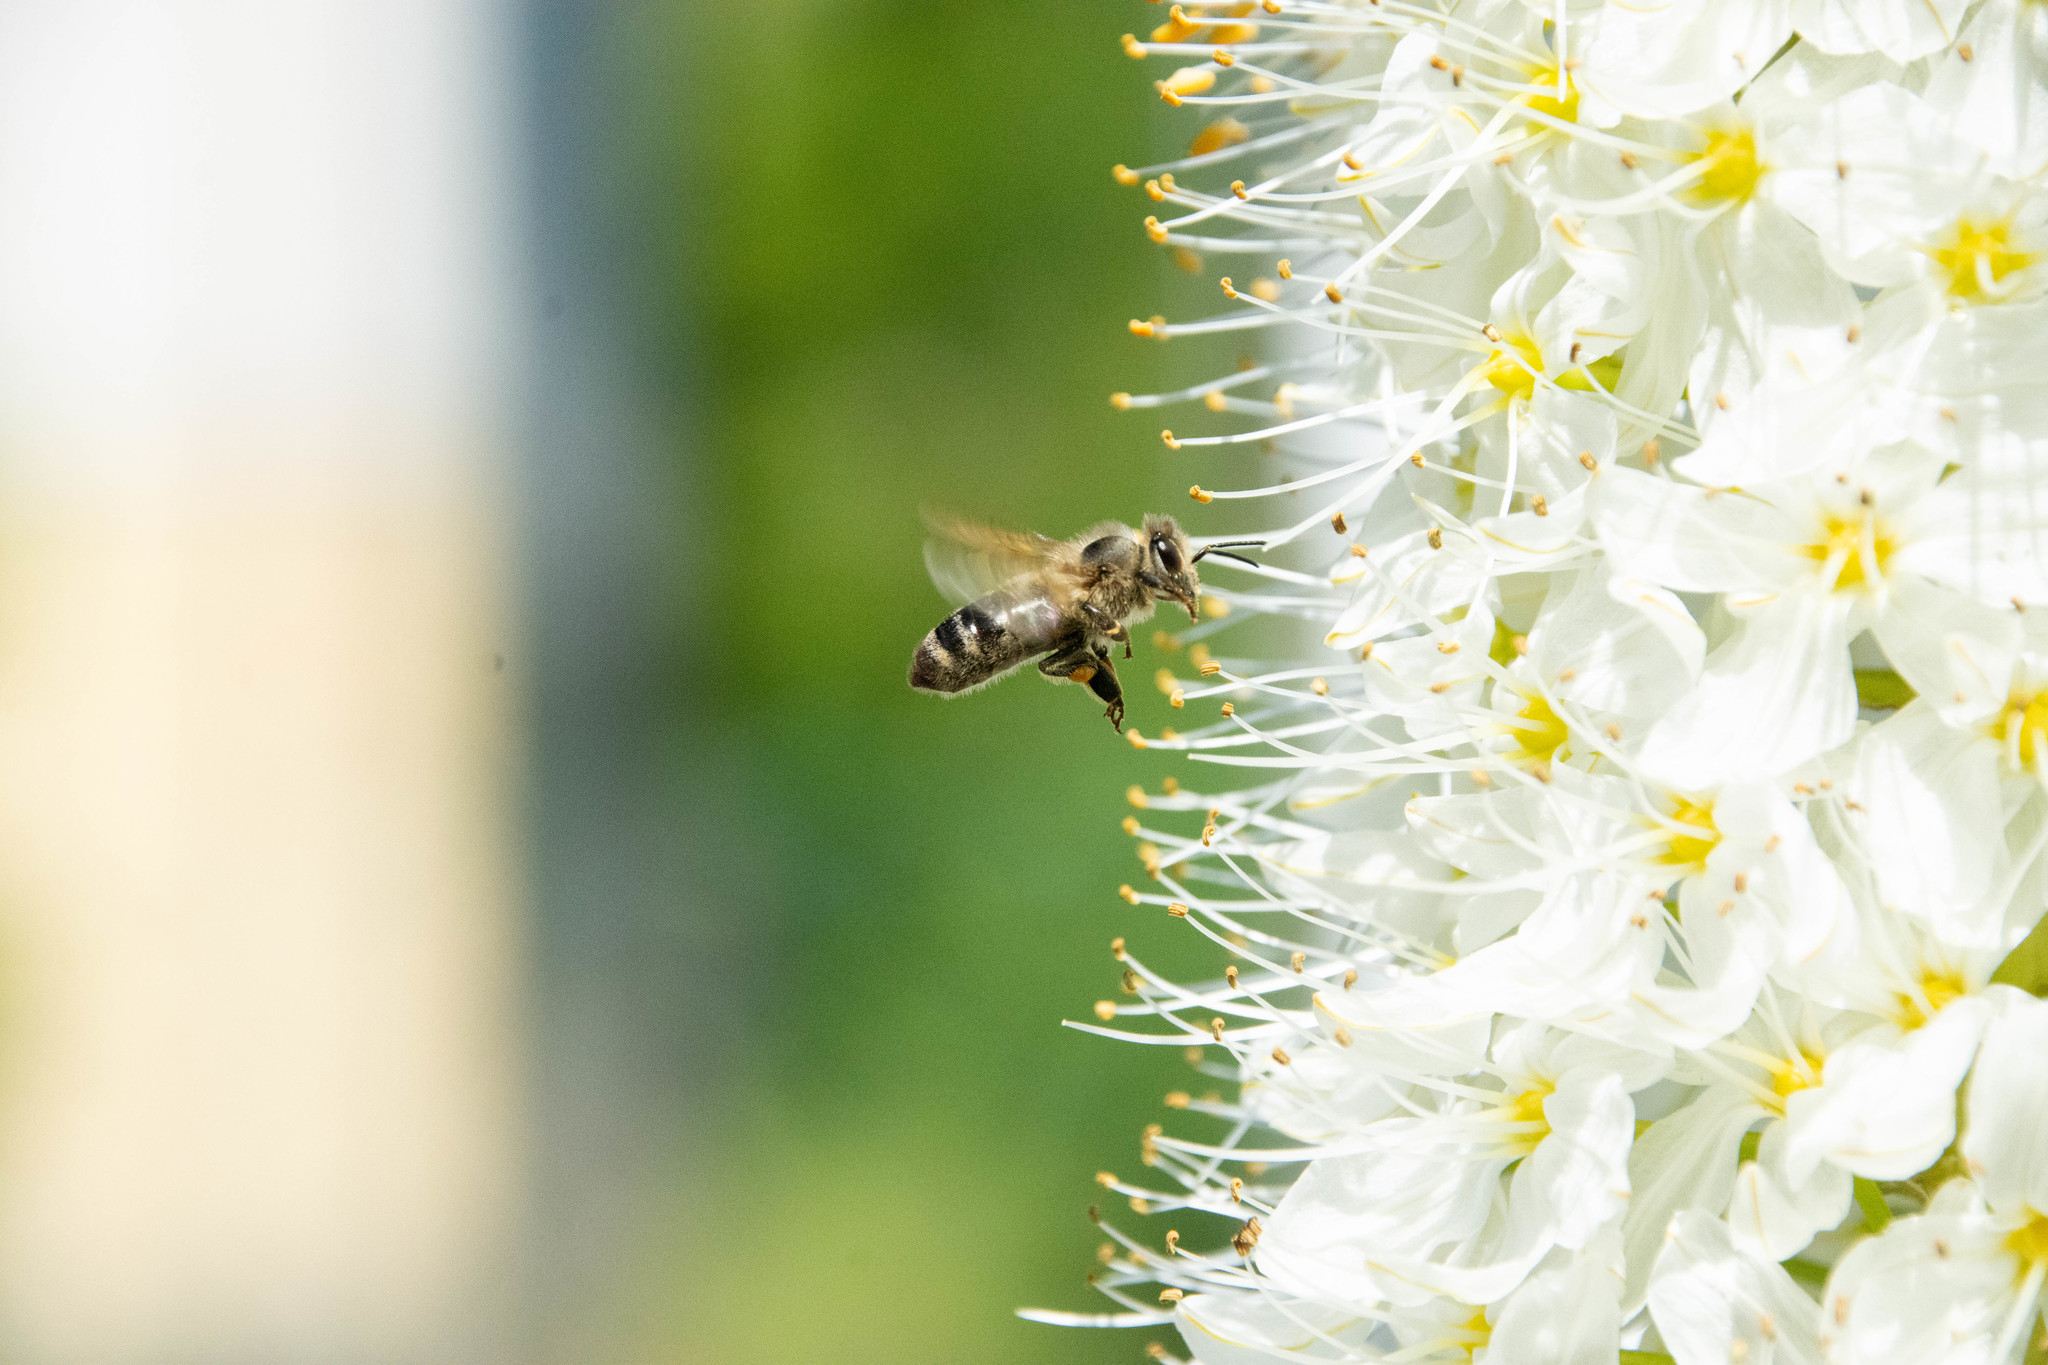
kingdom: Animalia
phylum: Arthropoda
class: Insecta
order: Hymenoptera
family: Apidae
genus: Apis
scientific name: Apis mellifera
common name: Honey bee
